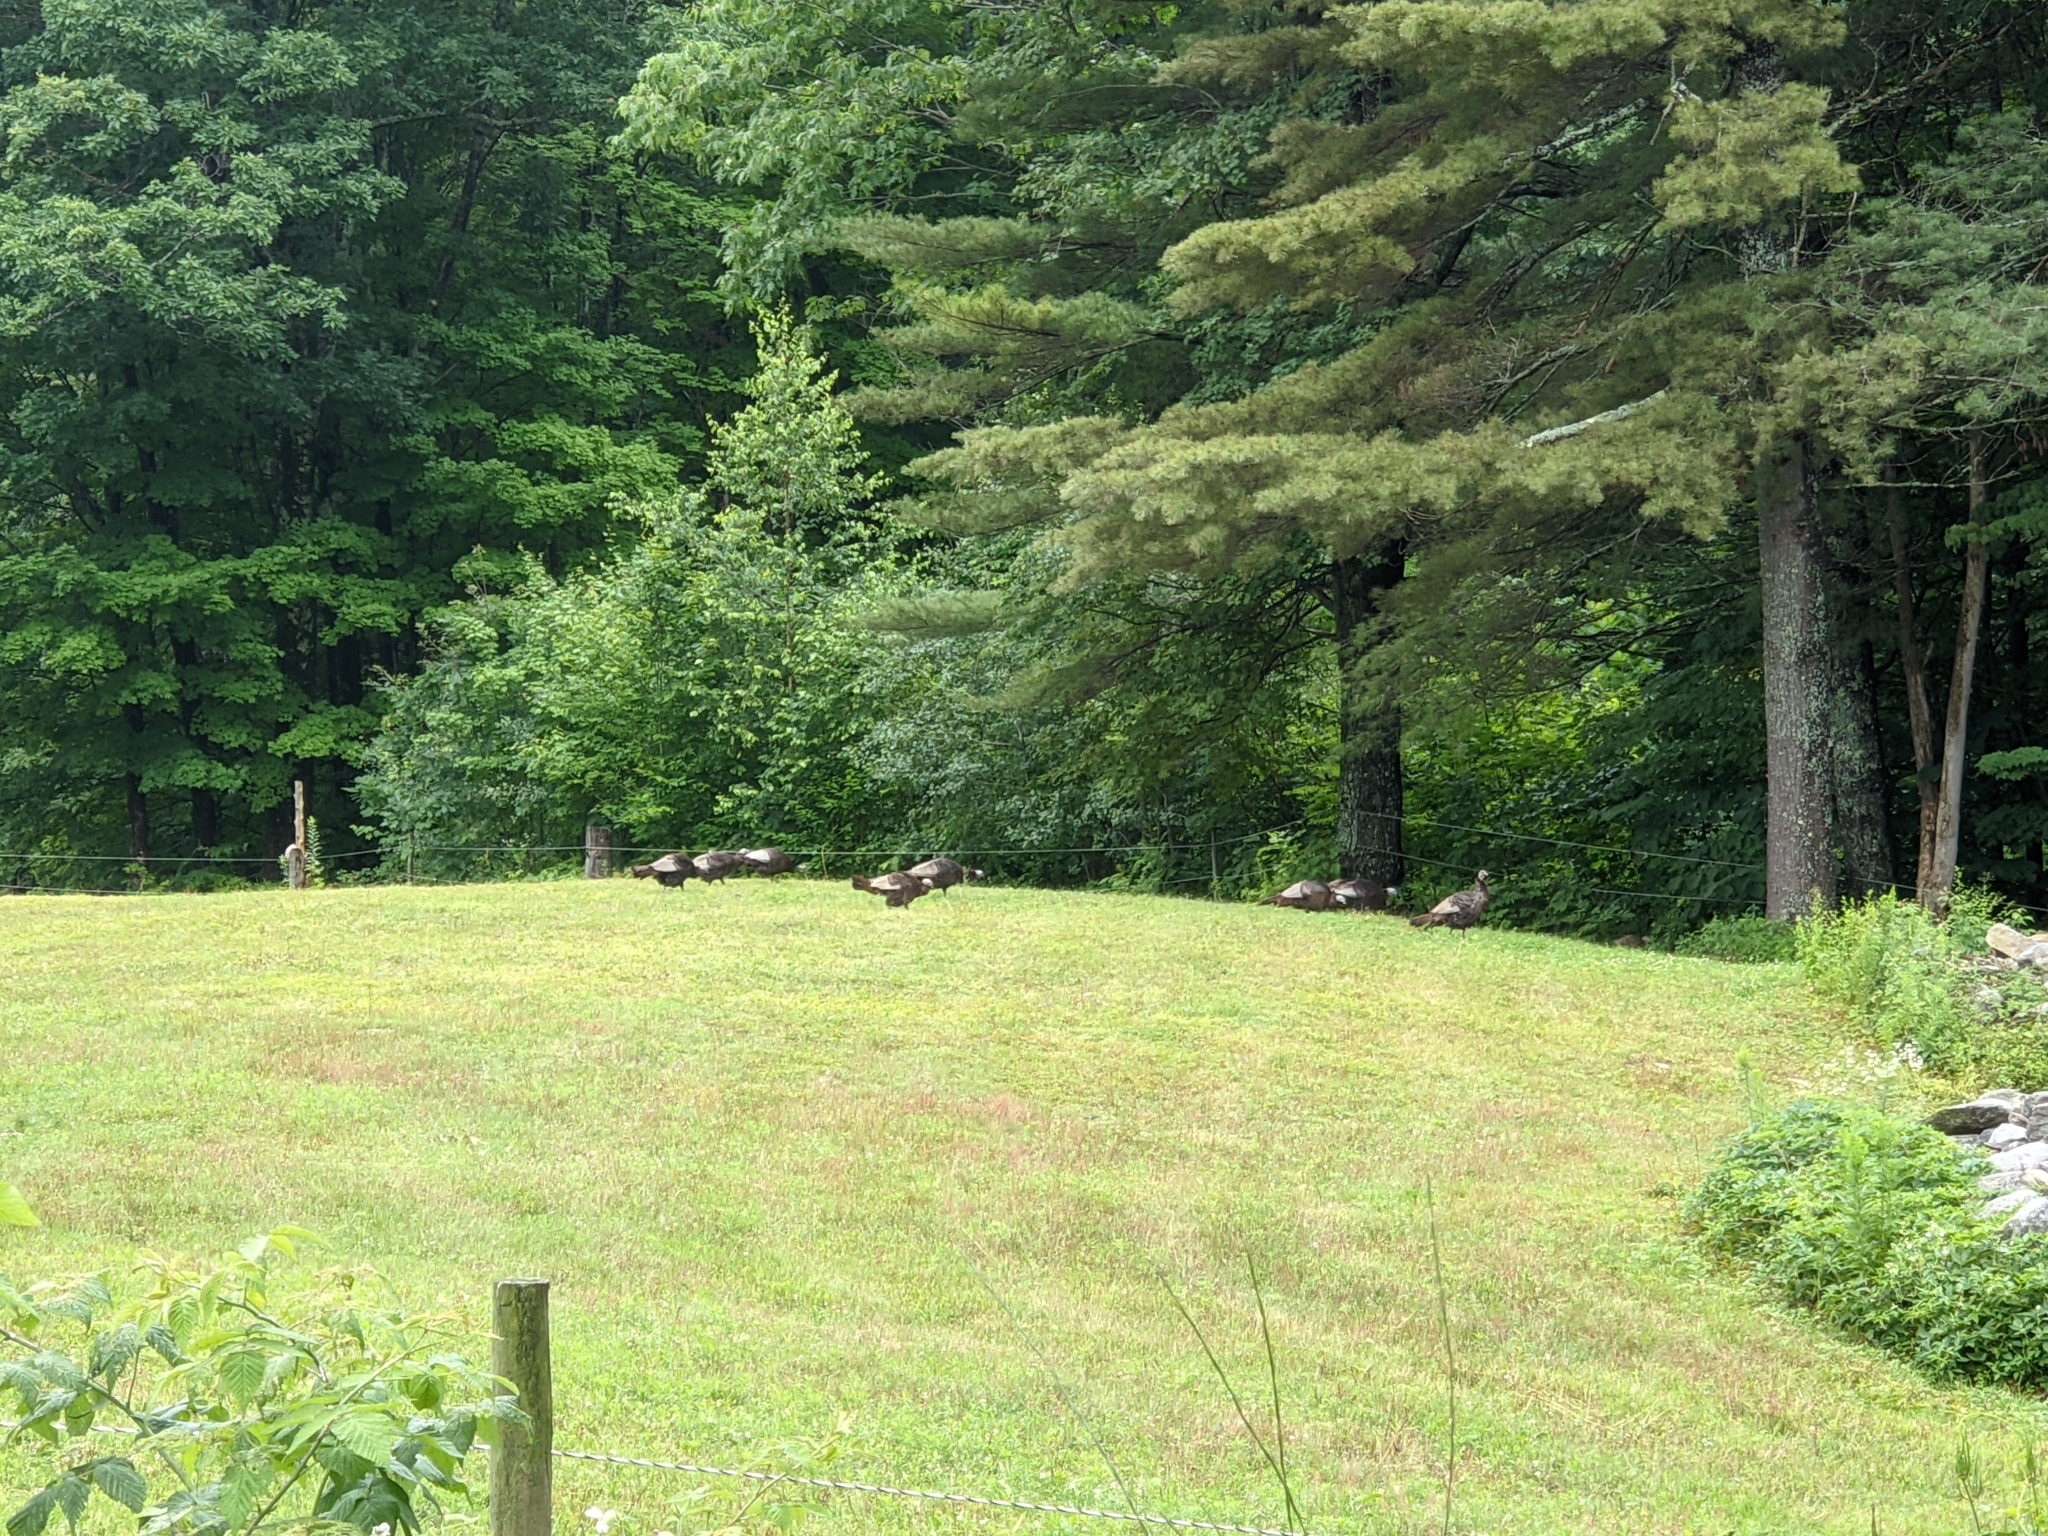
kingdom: Animalia
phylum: Chordata
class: Aves
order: Galliformes
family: Phasianidae
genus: Meleagris
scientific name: Meleagris gallopavo
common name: Wild turkey
